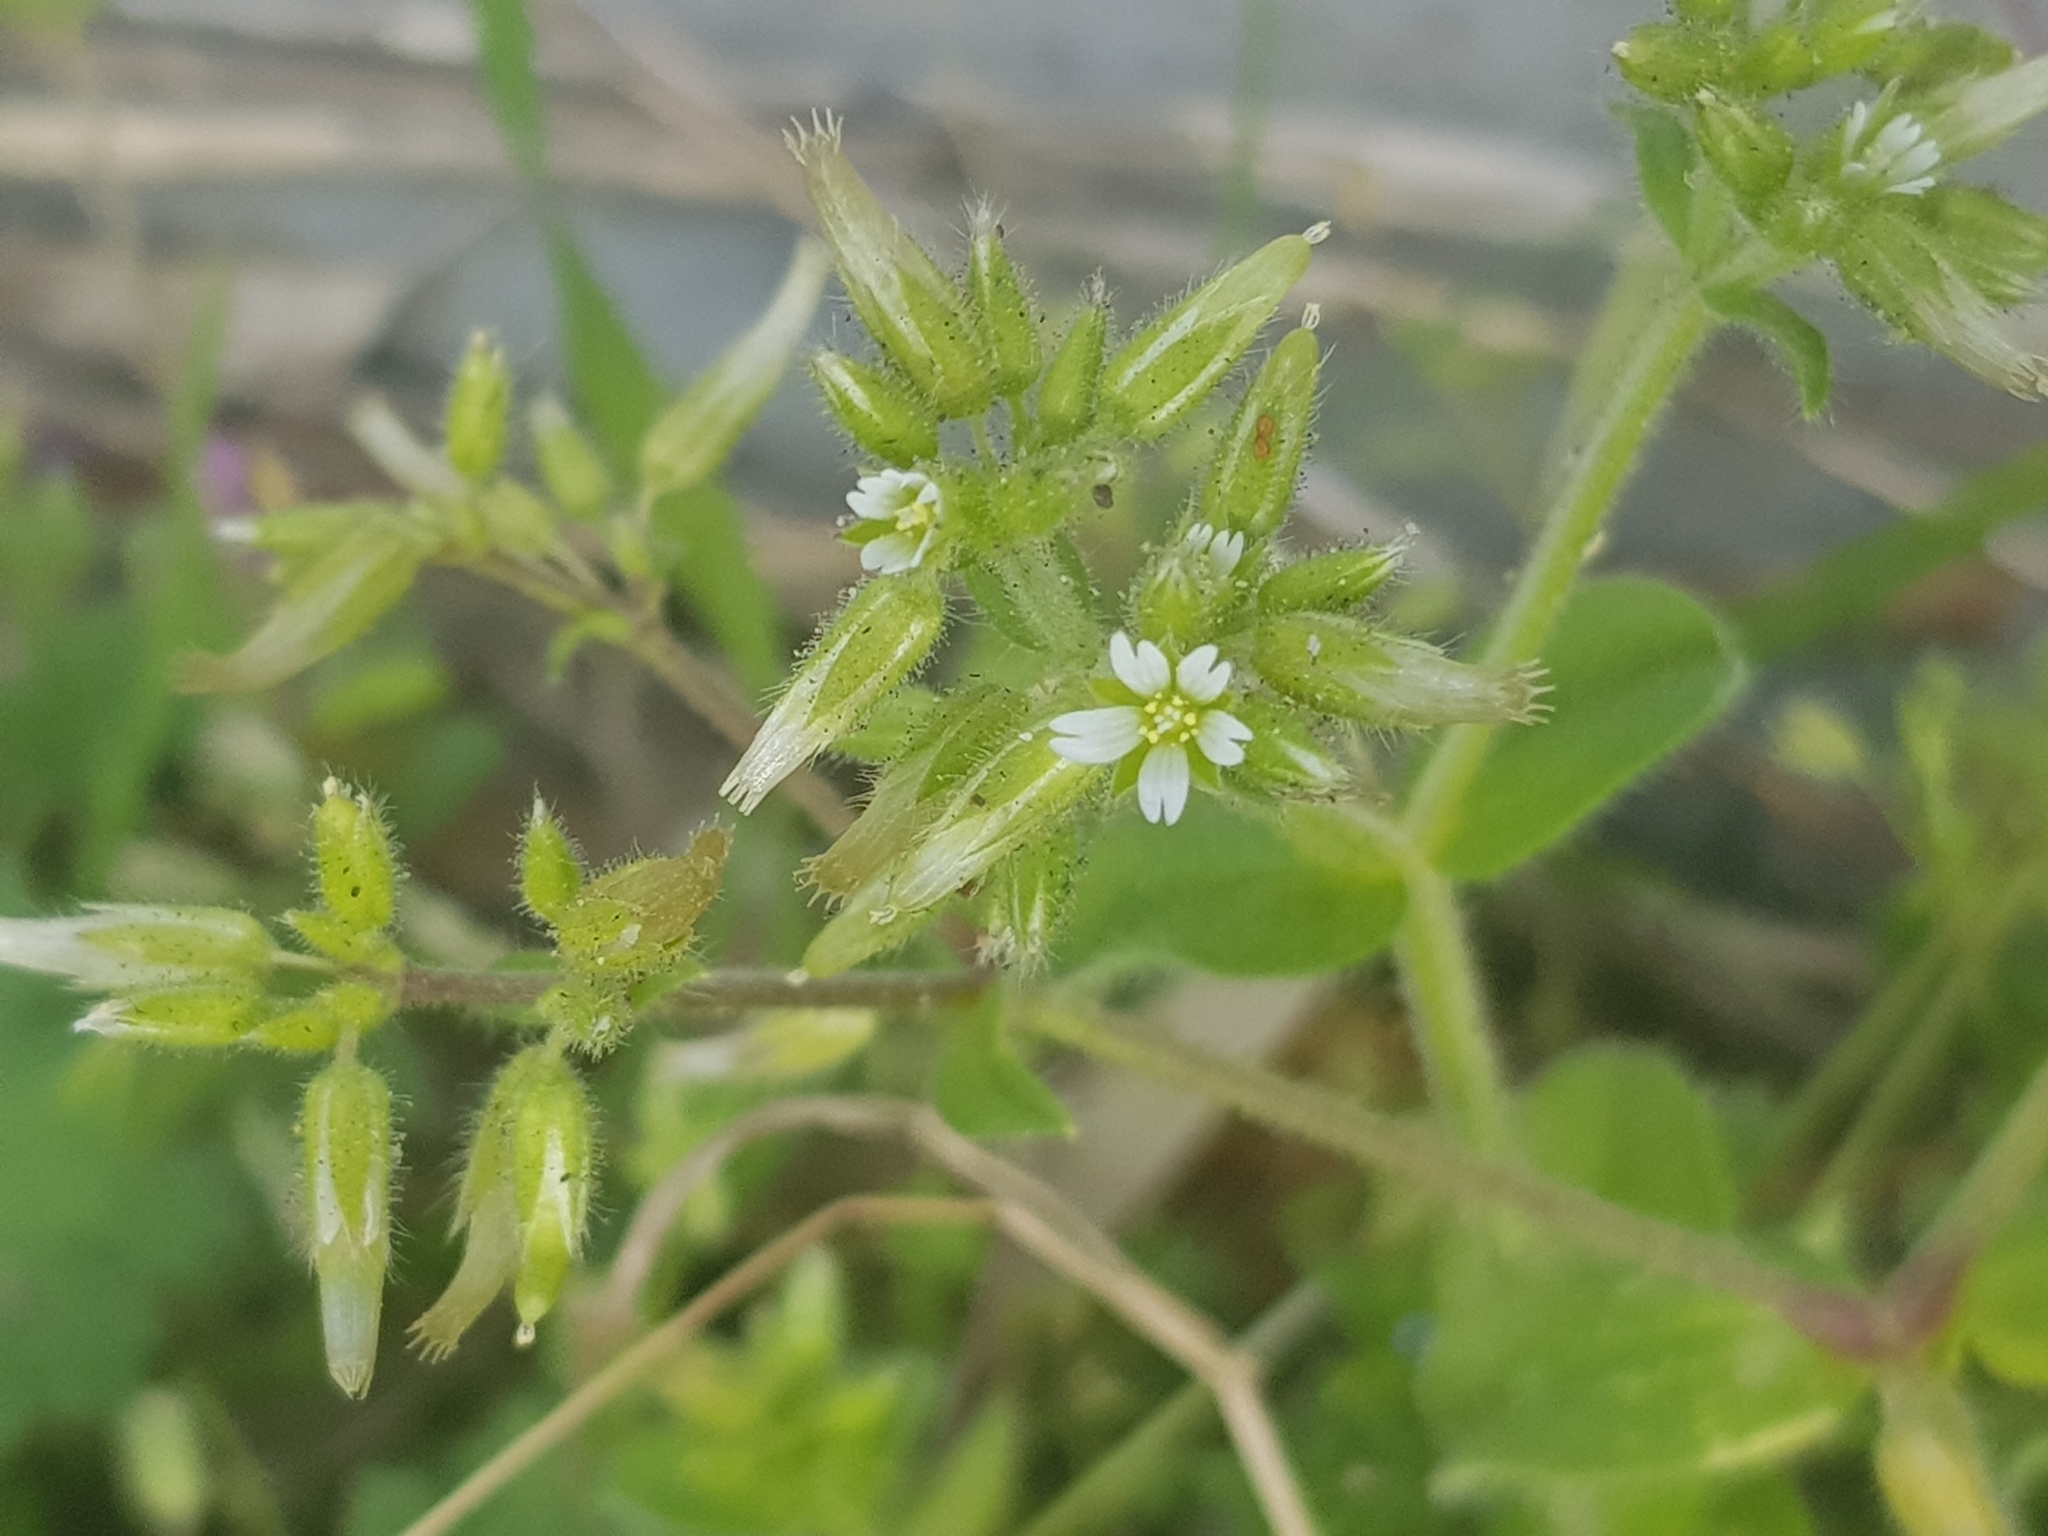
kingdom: Plantae
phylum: Tracheophyta
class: Magnoliopsida
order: Caryophyllales
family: Caryophyllaceae
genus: Cerastium
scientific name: Cerastium glomeratum
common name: Sticky chickweed
